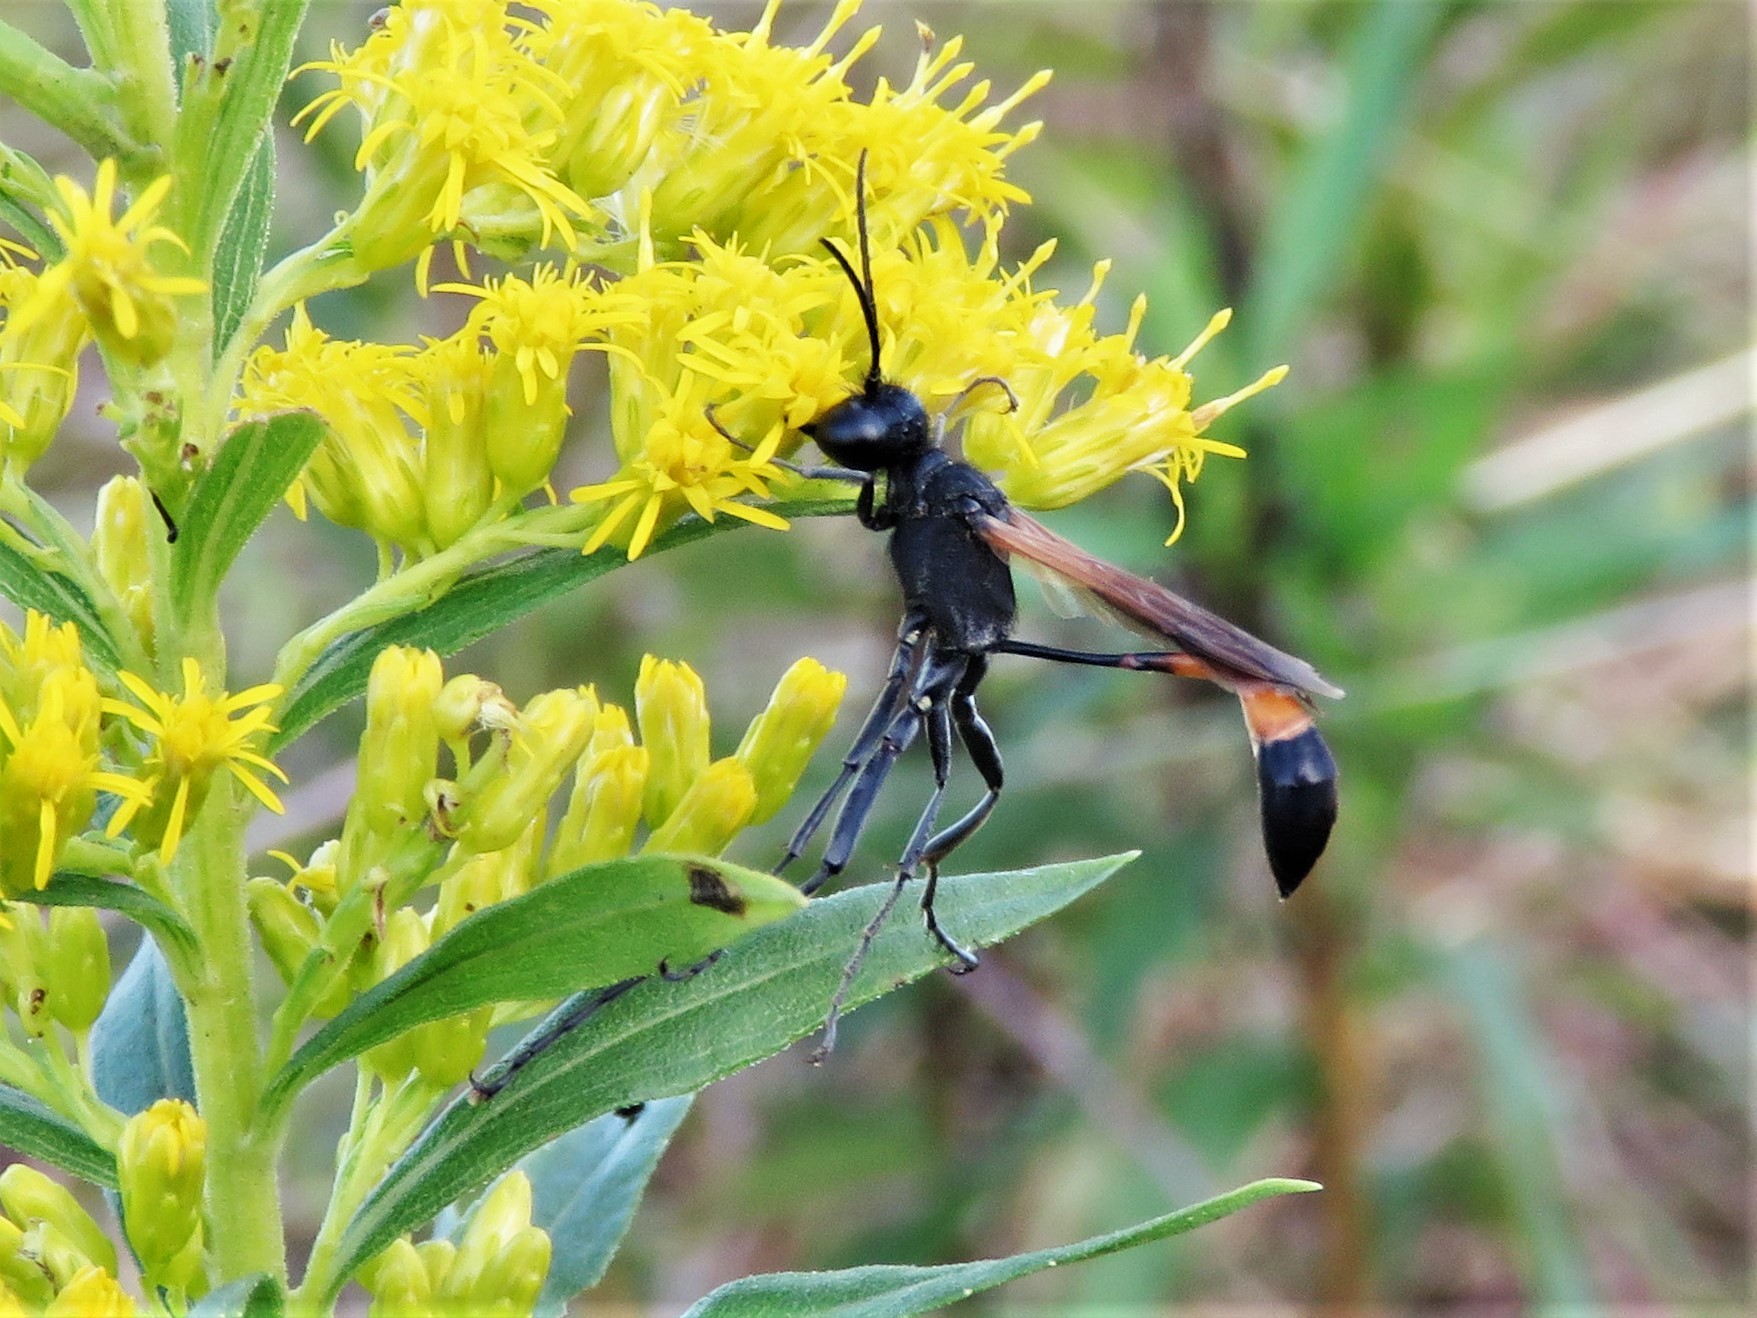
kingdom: Animalia
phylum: Arthropoda
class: Insecta
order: Hymenoptera
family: Sphecidae
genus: Ammophila
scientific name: Ammophila pictipennis
